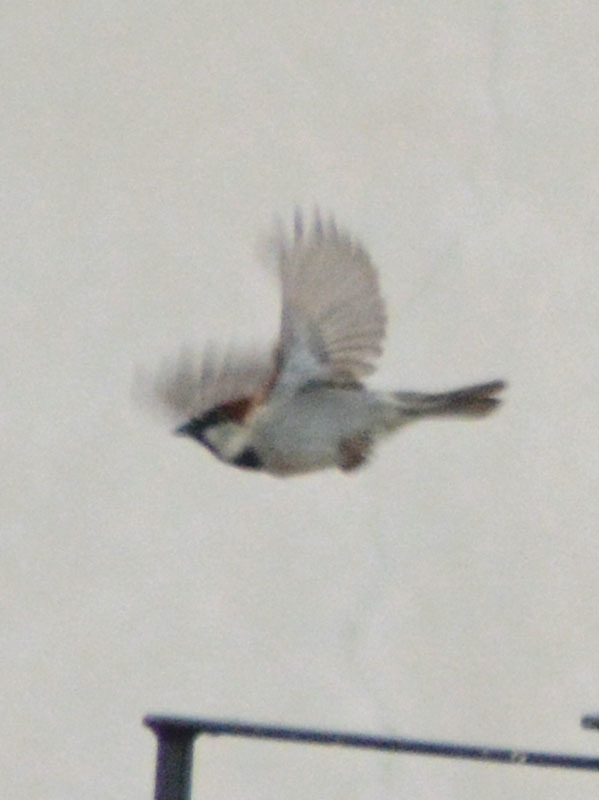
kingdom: Animalia
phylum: Chordata
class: Aves
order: Passeriformes
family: Passeridae
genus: Passer
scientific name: Passer domesticus
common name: House sparrow
